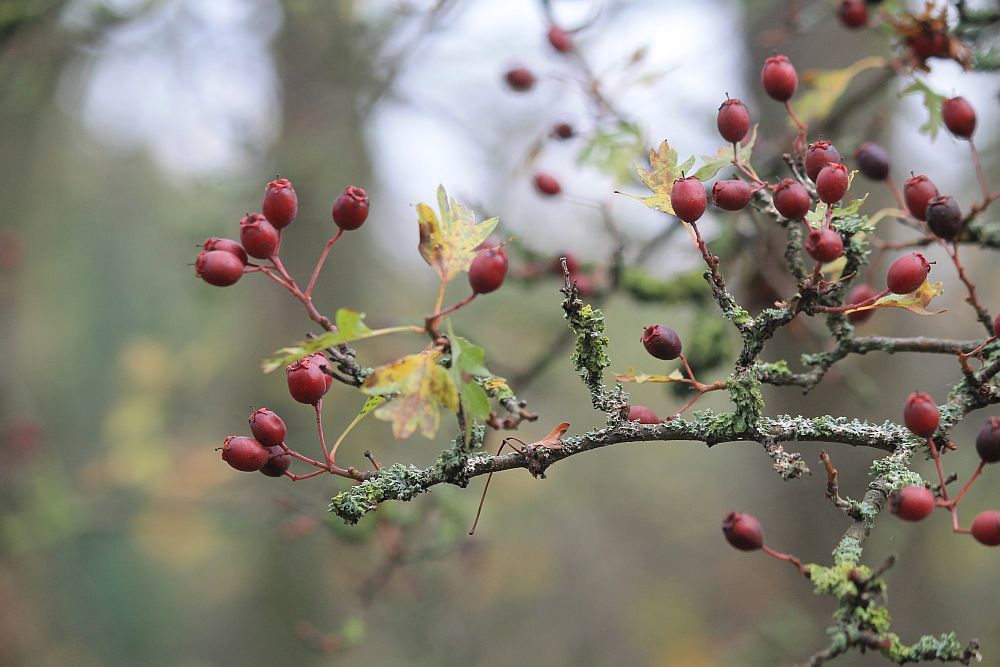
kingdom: Plantae
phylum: Tracheophyta
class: Magnoliopsida
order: Rosales
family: Rosaceae
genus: Crataegus
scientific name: Crataegus monogyna
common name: Hawthorn
